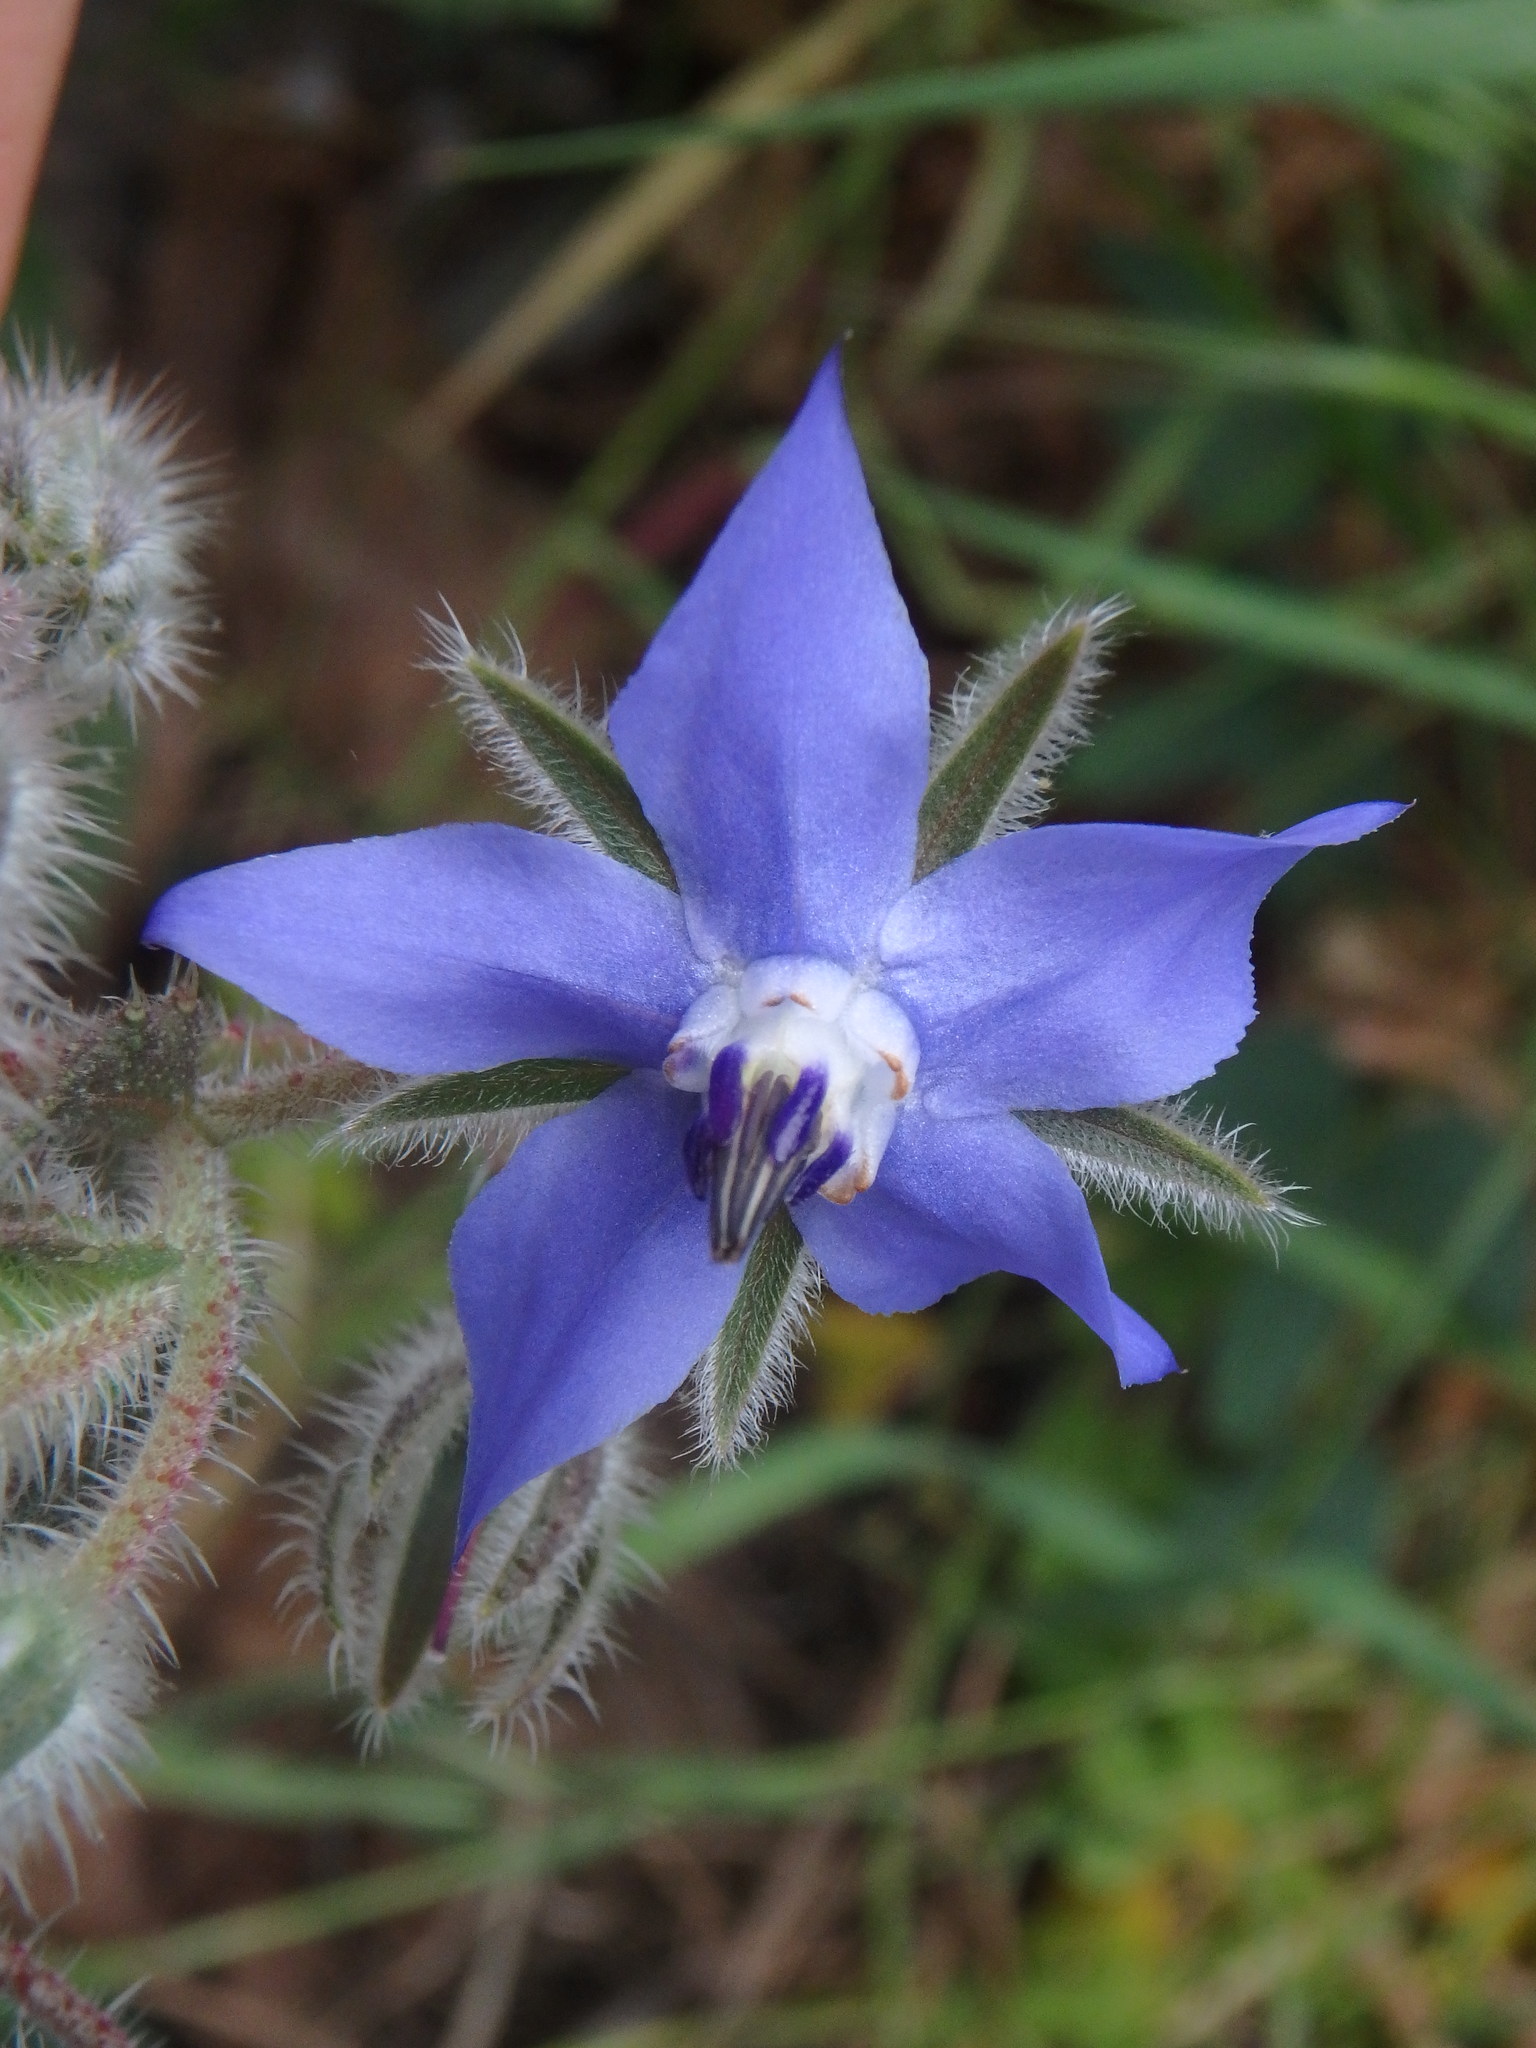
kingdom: Plantae
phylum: Tracheophyta
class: Magnoliopsida
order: Boraginales
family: Boraginaceae
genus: Borago
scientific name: Borago officinalis
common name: Borage
